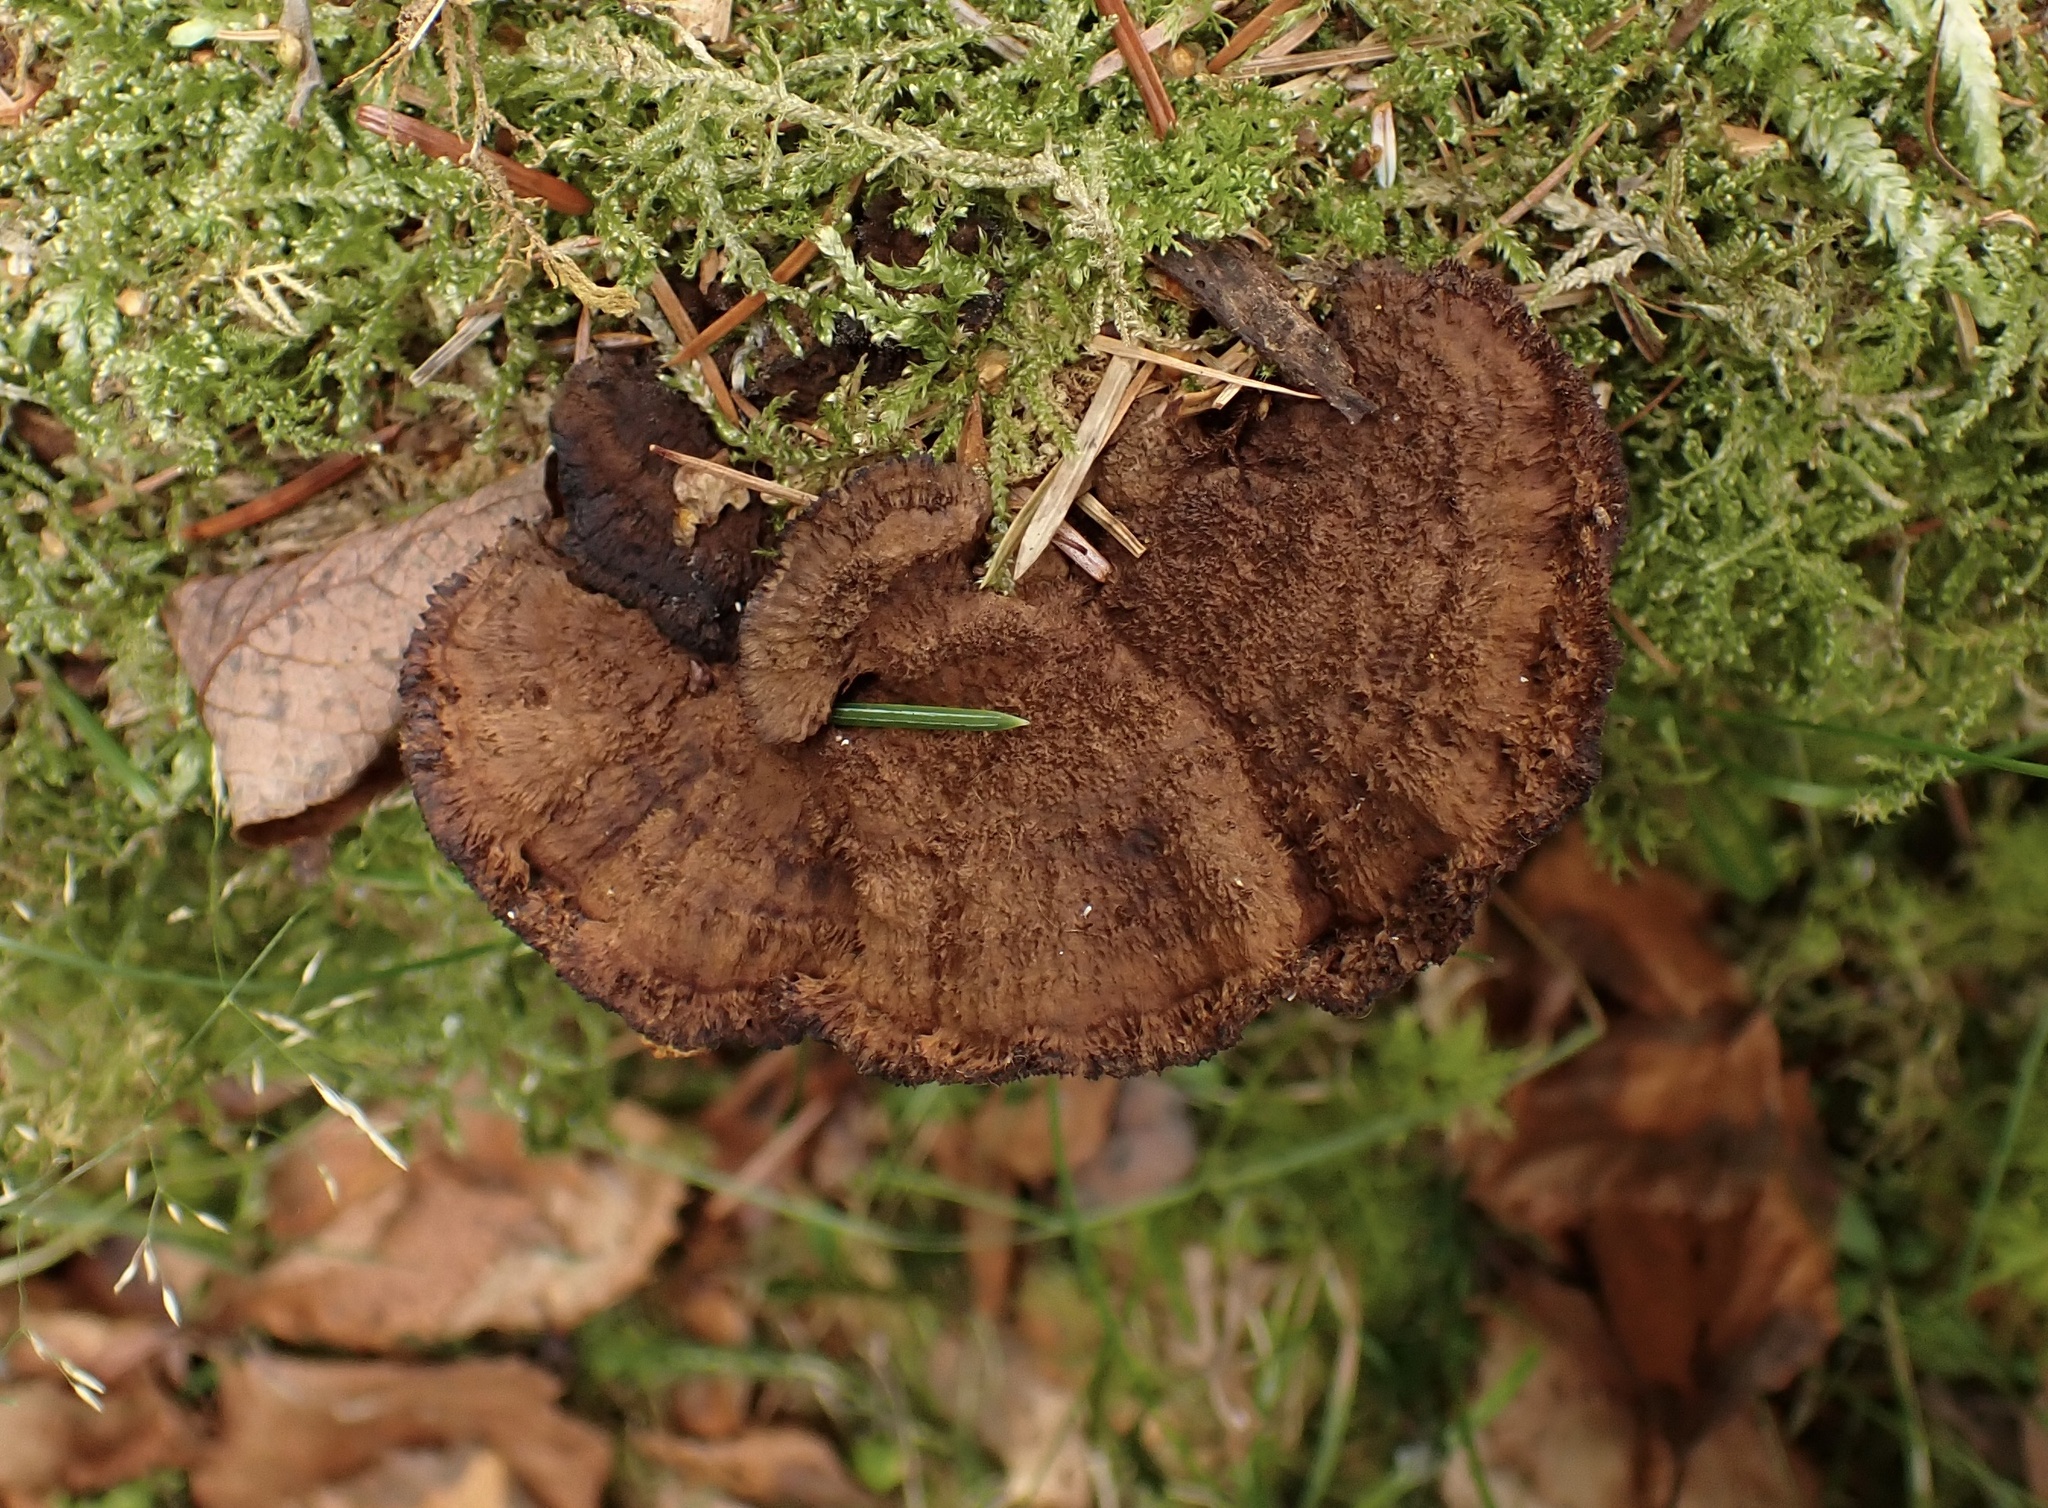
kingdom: Fungi
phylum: Basidiomycota
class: Agaricomycetes
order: Gloeophyllales
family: Gloeophyllaceae
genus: Gloeophyllum
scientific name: Gloeophyllum sepiarium
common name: Conifer mazegill
